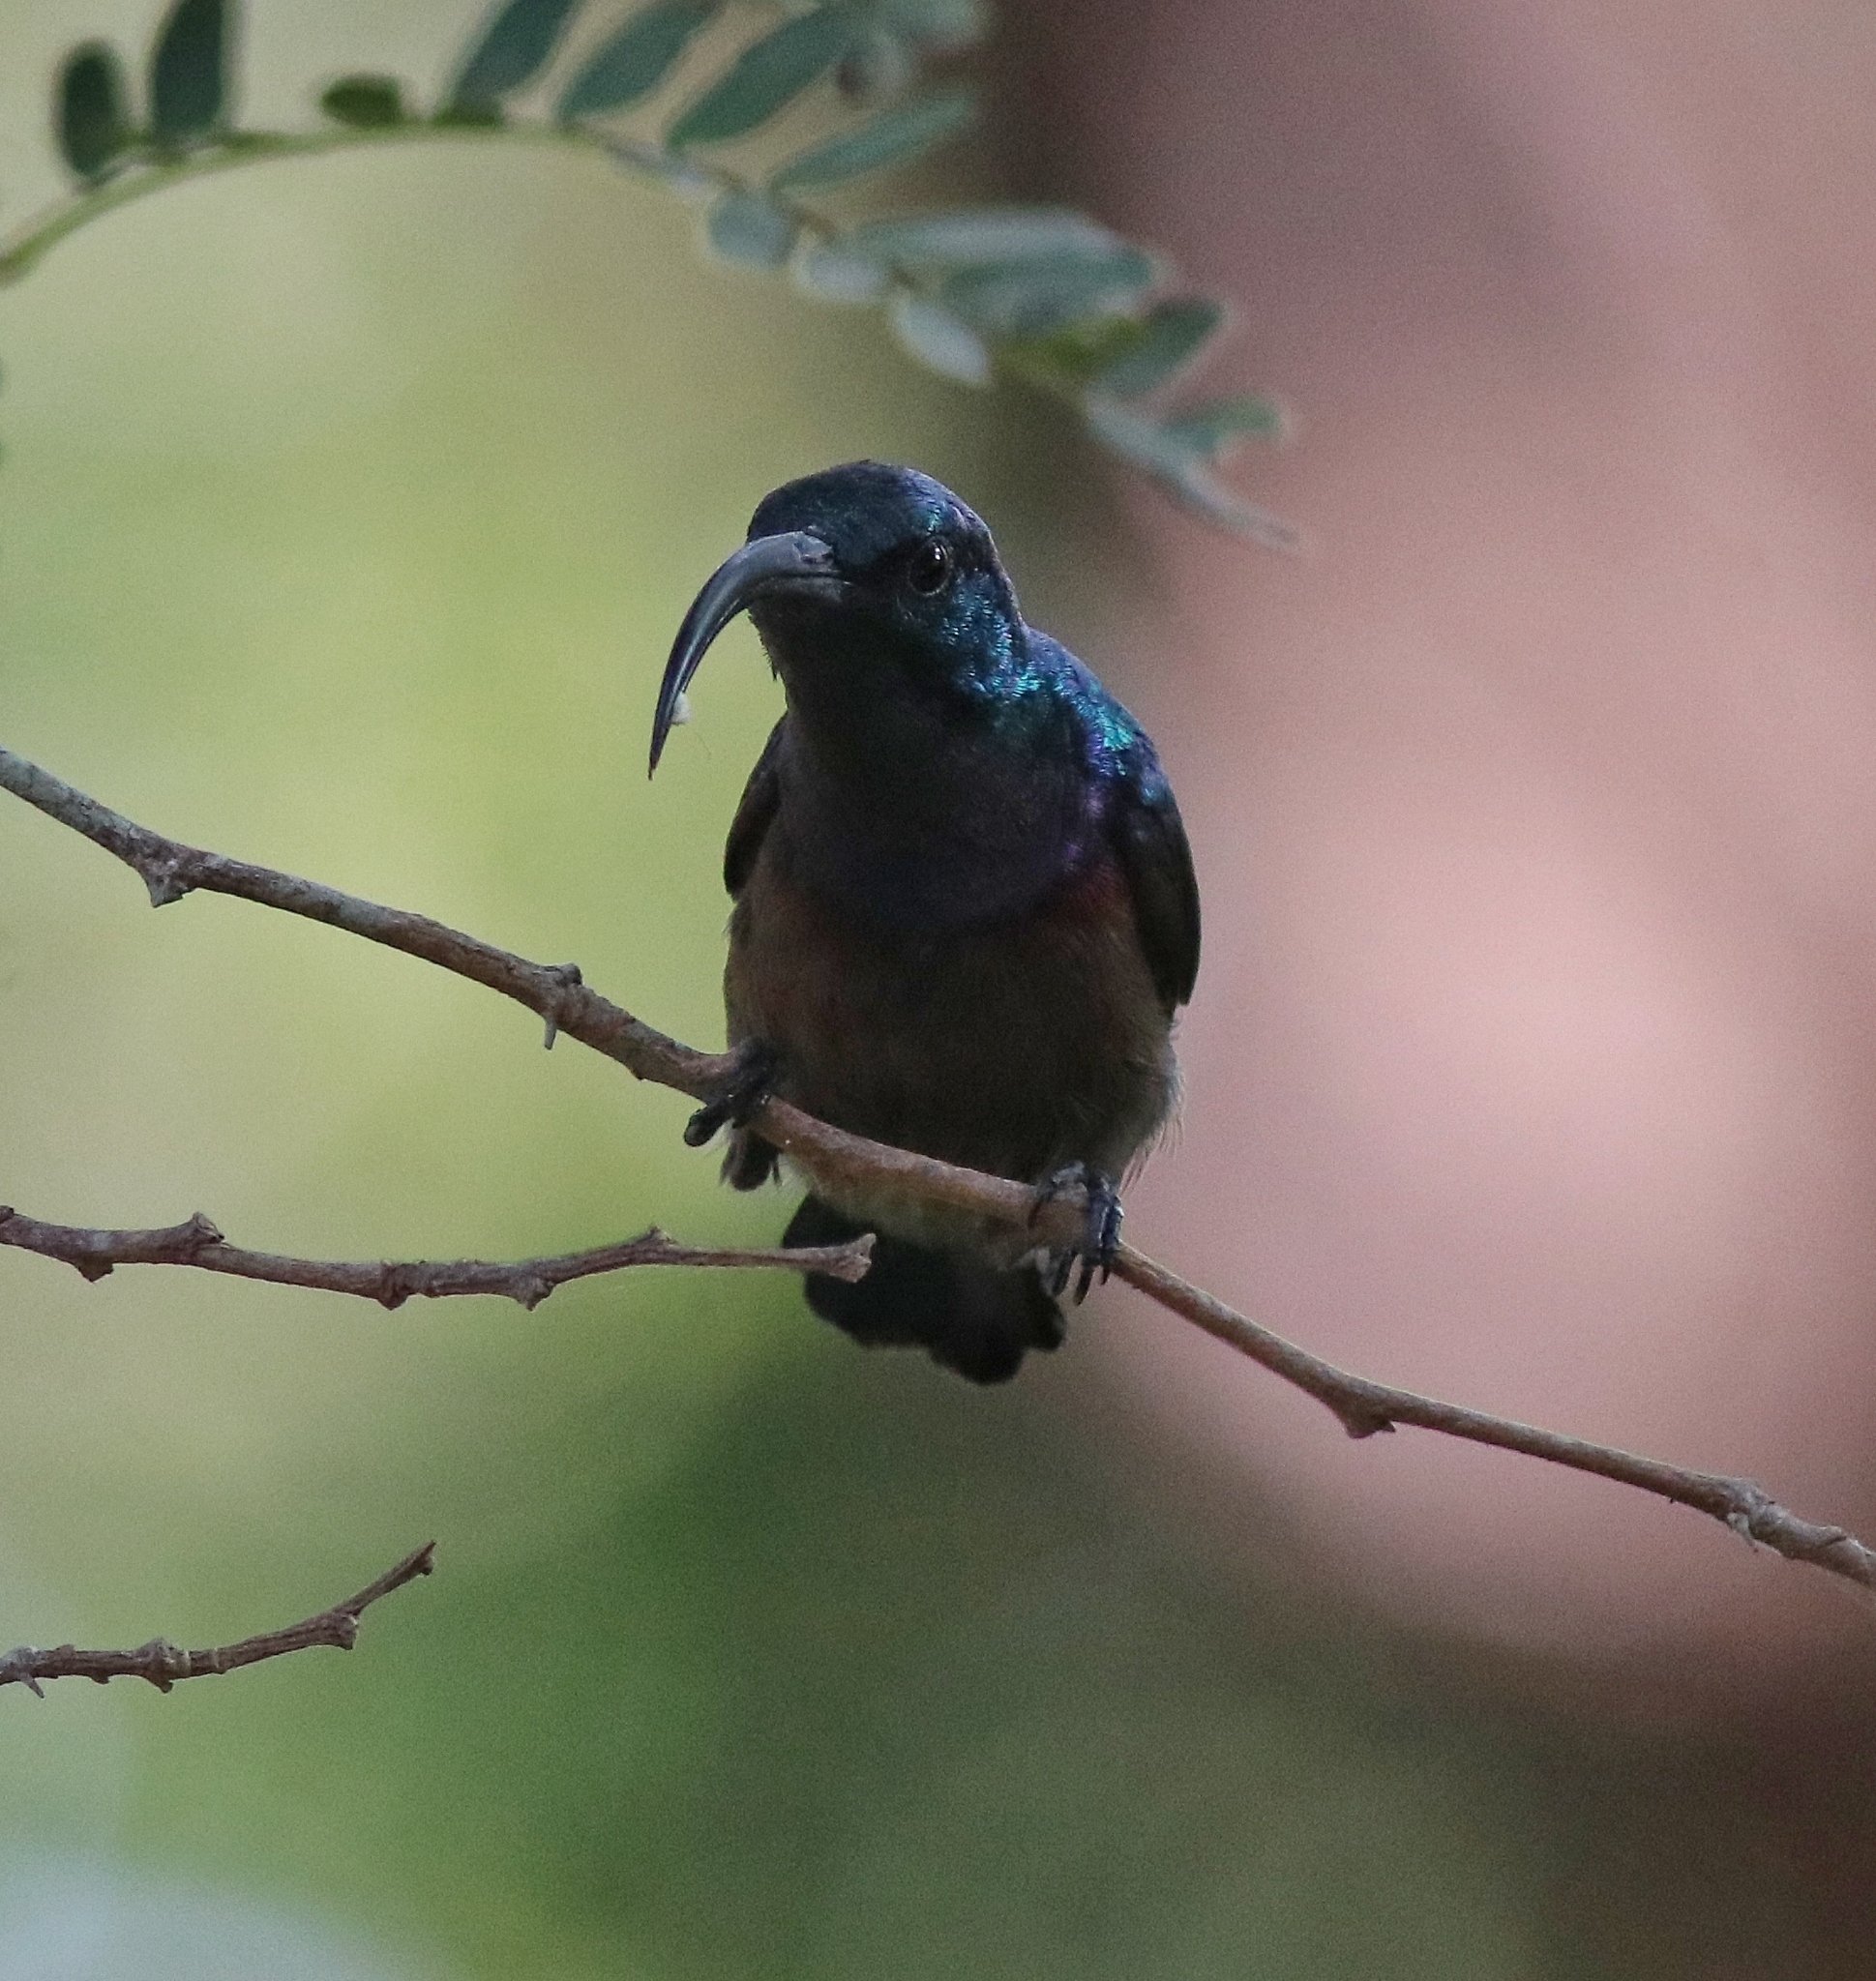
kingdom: Animalia
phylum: Chordata
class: Aves
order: Passeriformes
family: Nectariniidae
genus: Cinnyris
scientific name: Cinnyris lotenius
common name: Loten's sunbird
